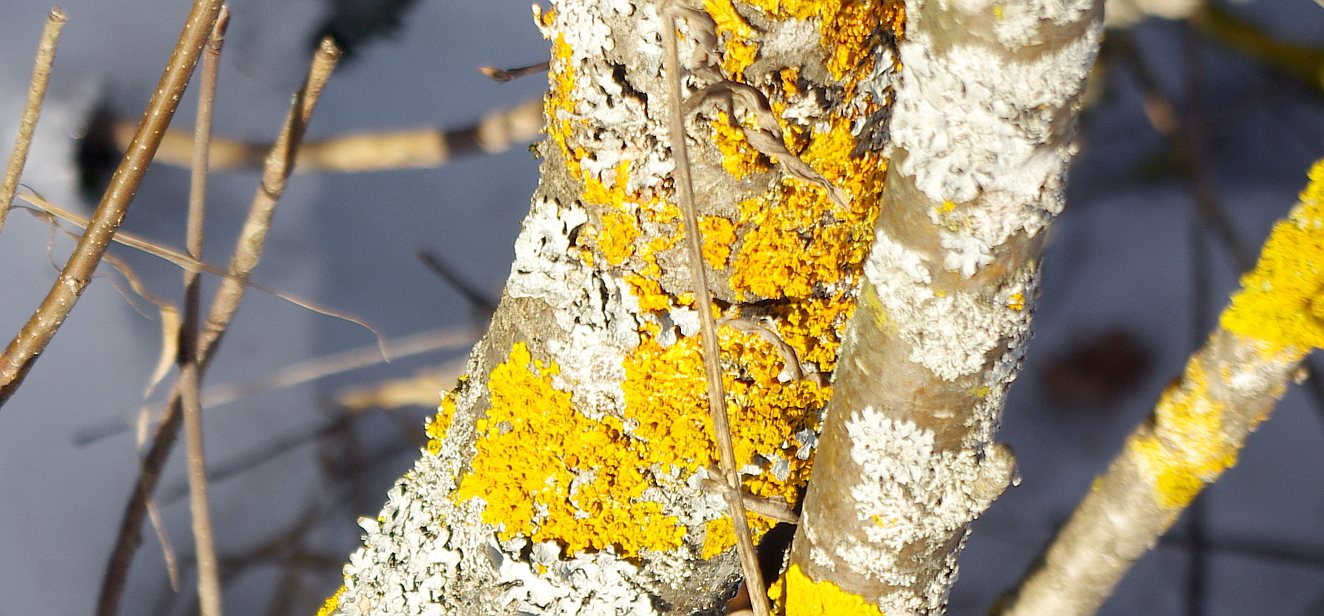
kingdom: Fungi
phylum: Ascomycota
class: Lecanoromycetes
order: Teloschistales
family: Teloschistaceae
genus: Xanthoria
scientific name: Xanthoria parietina
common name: Common orange lichen
